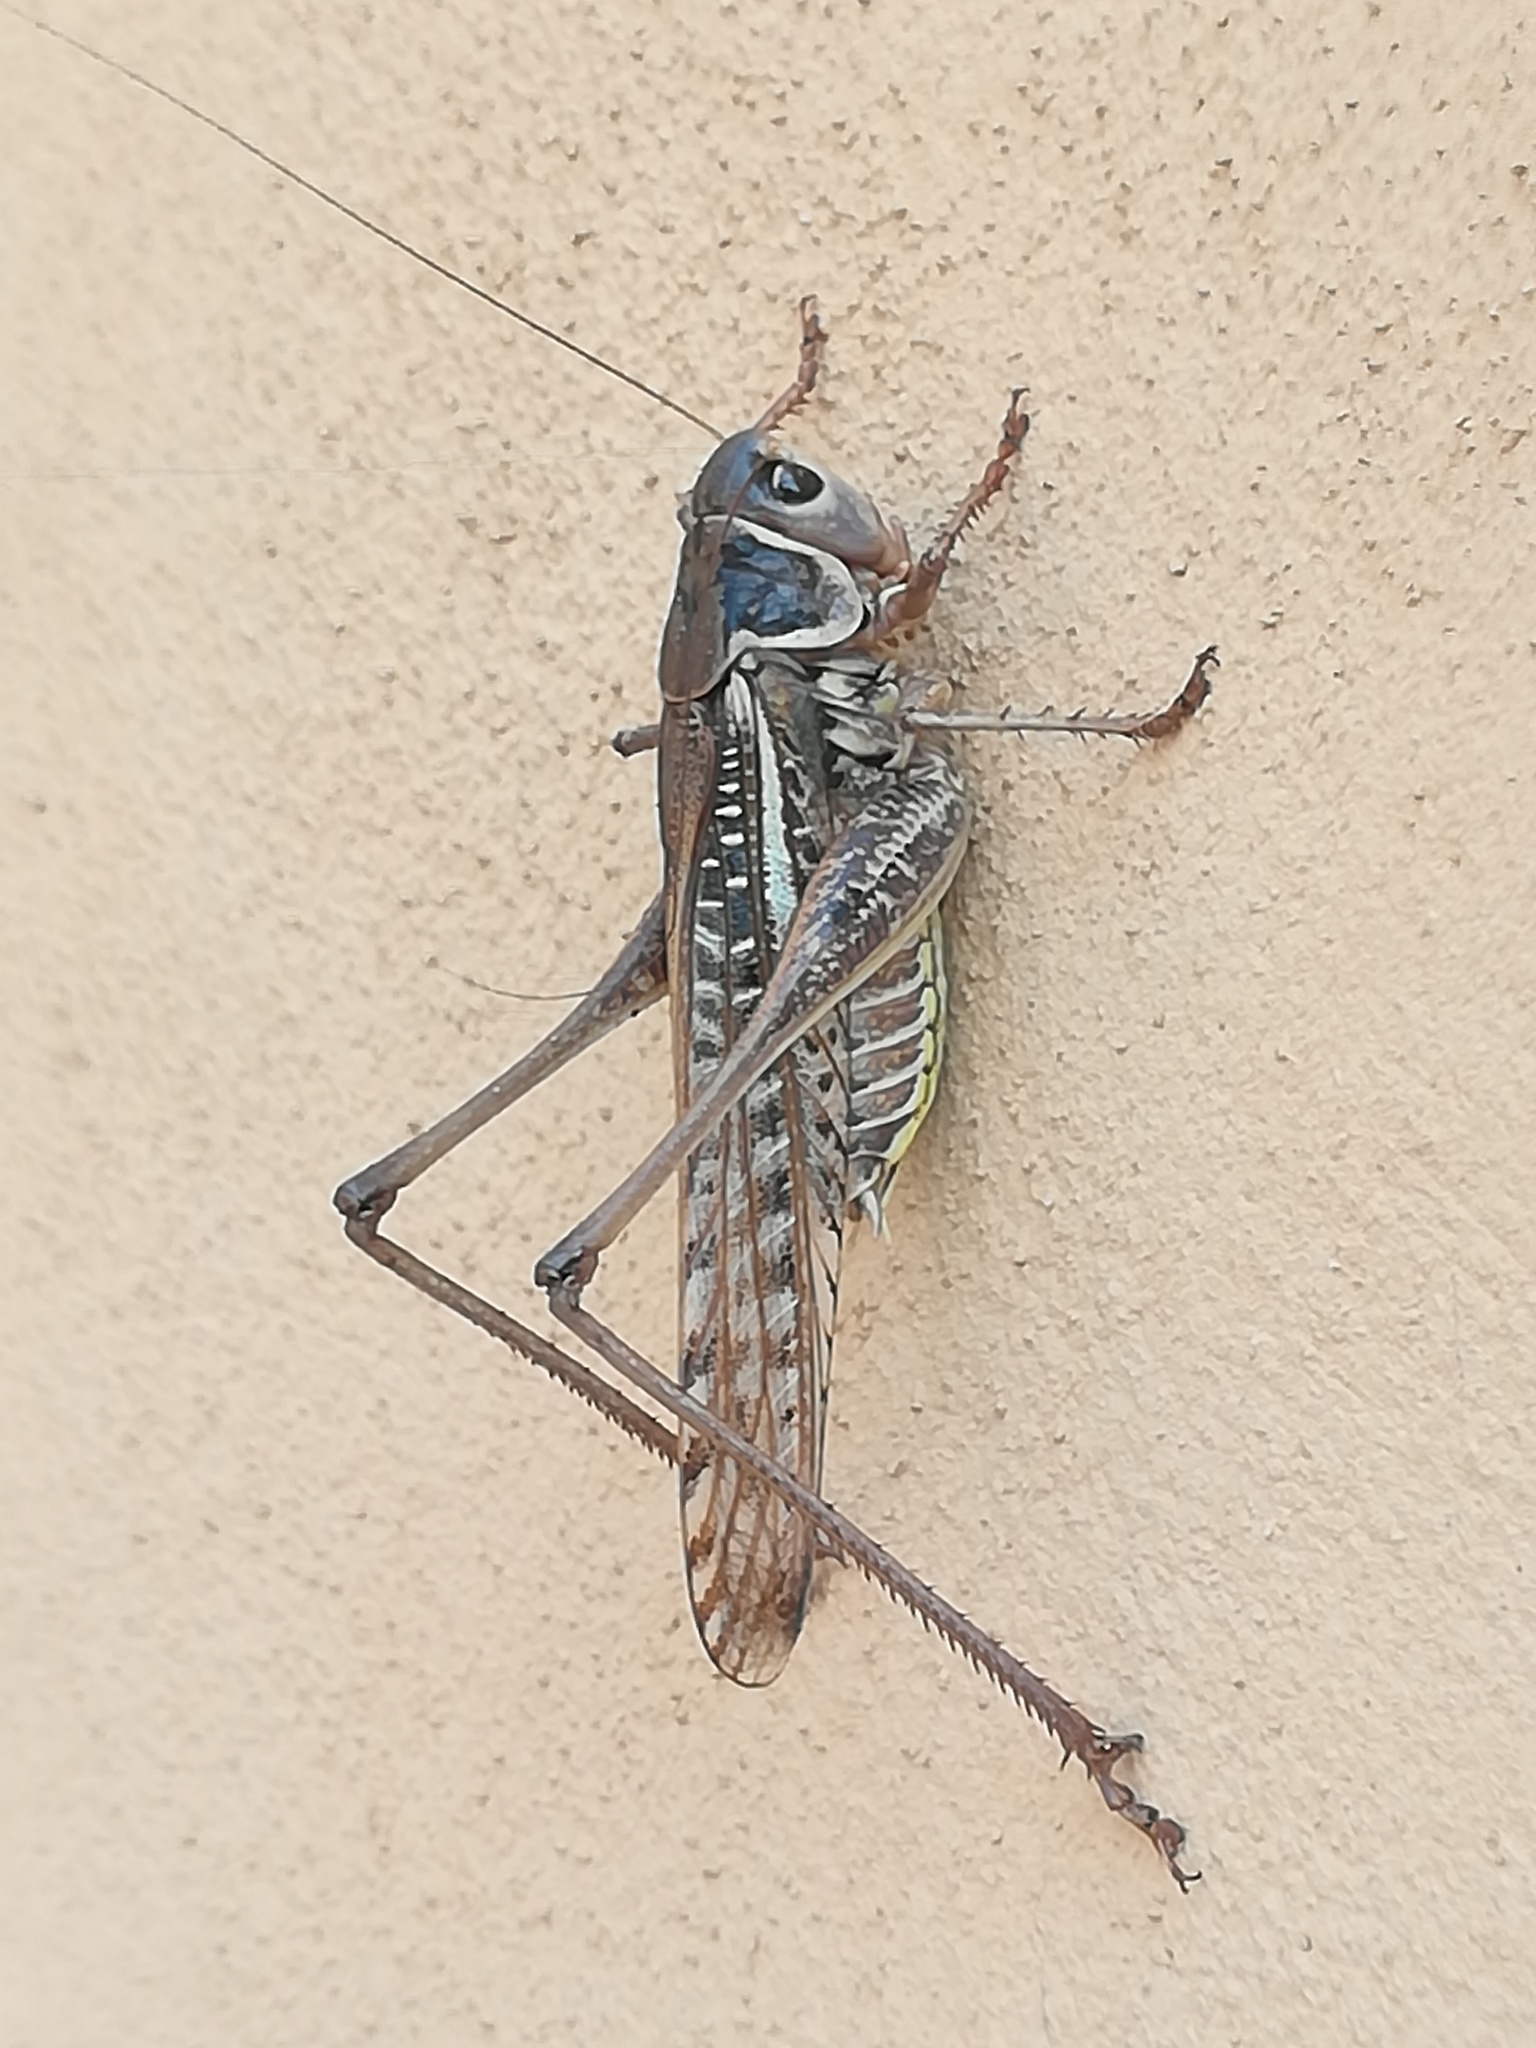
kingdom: Animalia
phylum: Arthropoda
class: Insecta
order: Orthoptera
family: Tettigoniidae
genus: Decticus
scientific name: Decticus albifrons
